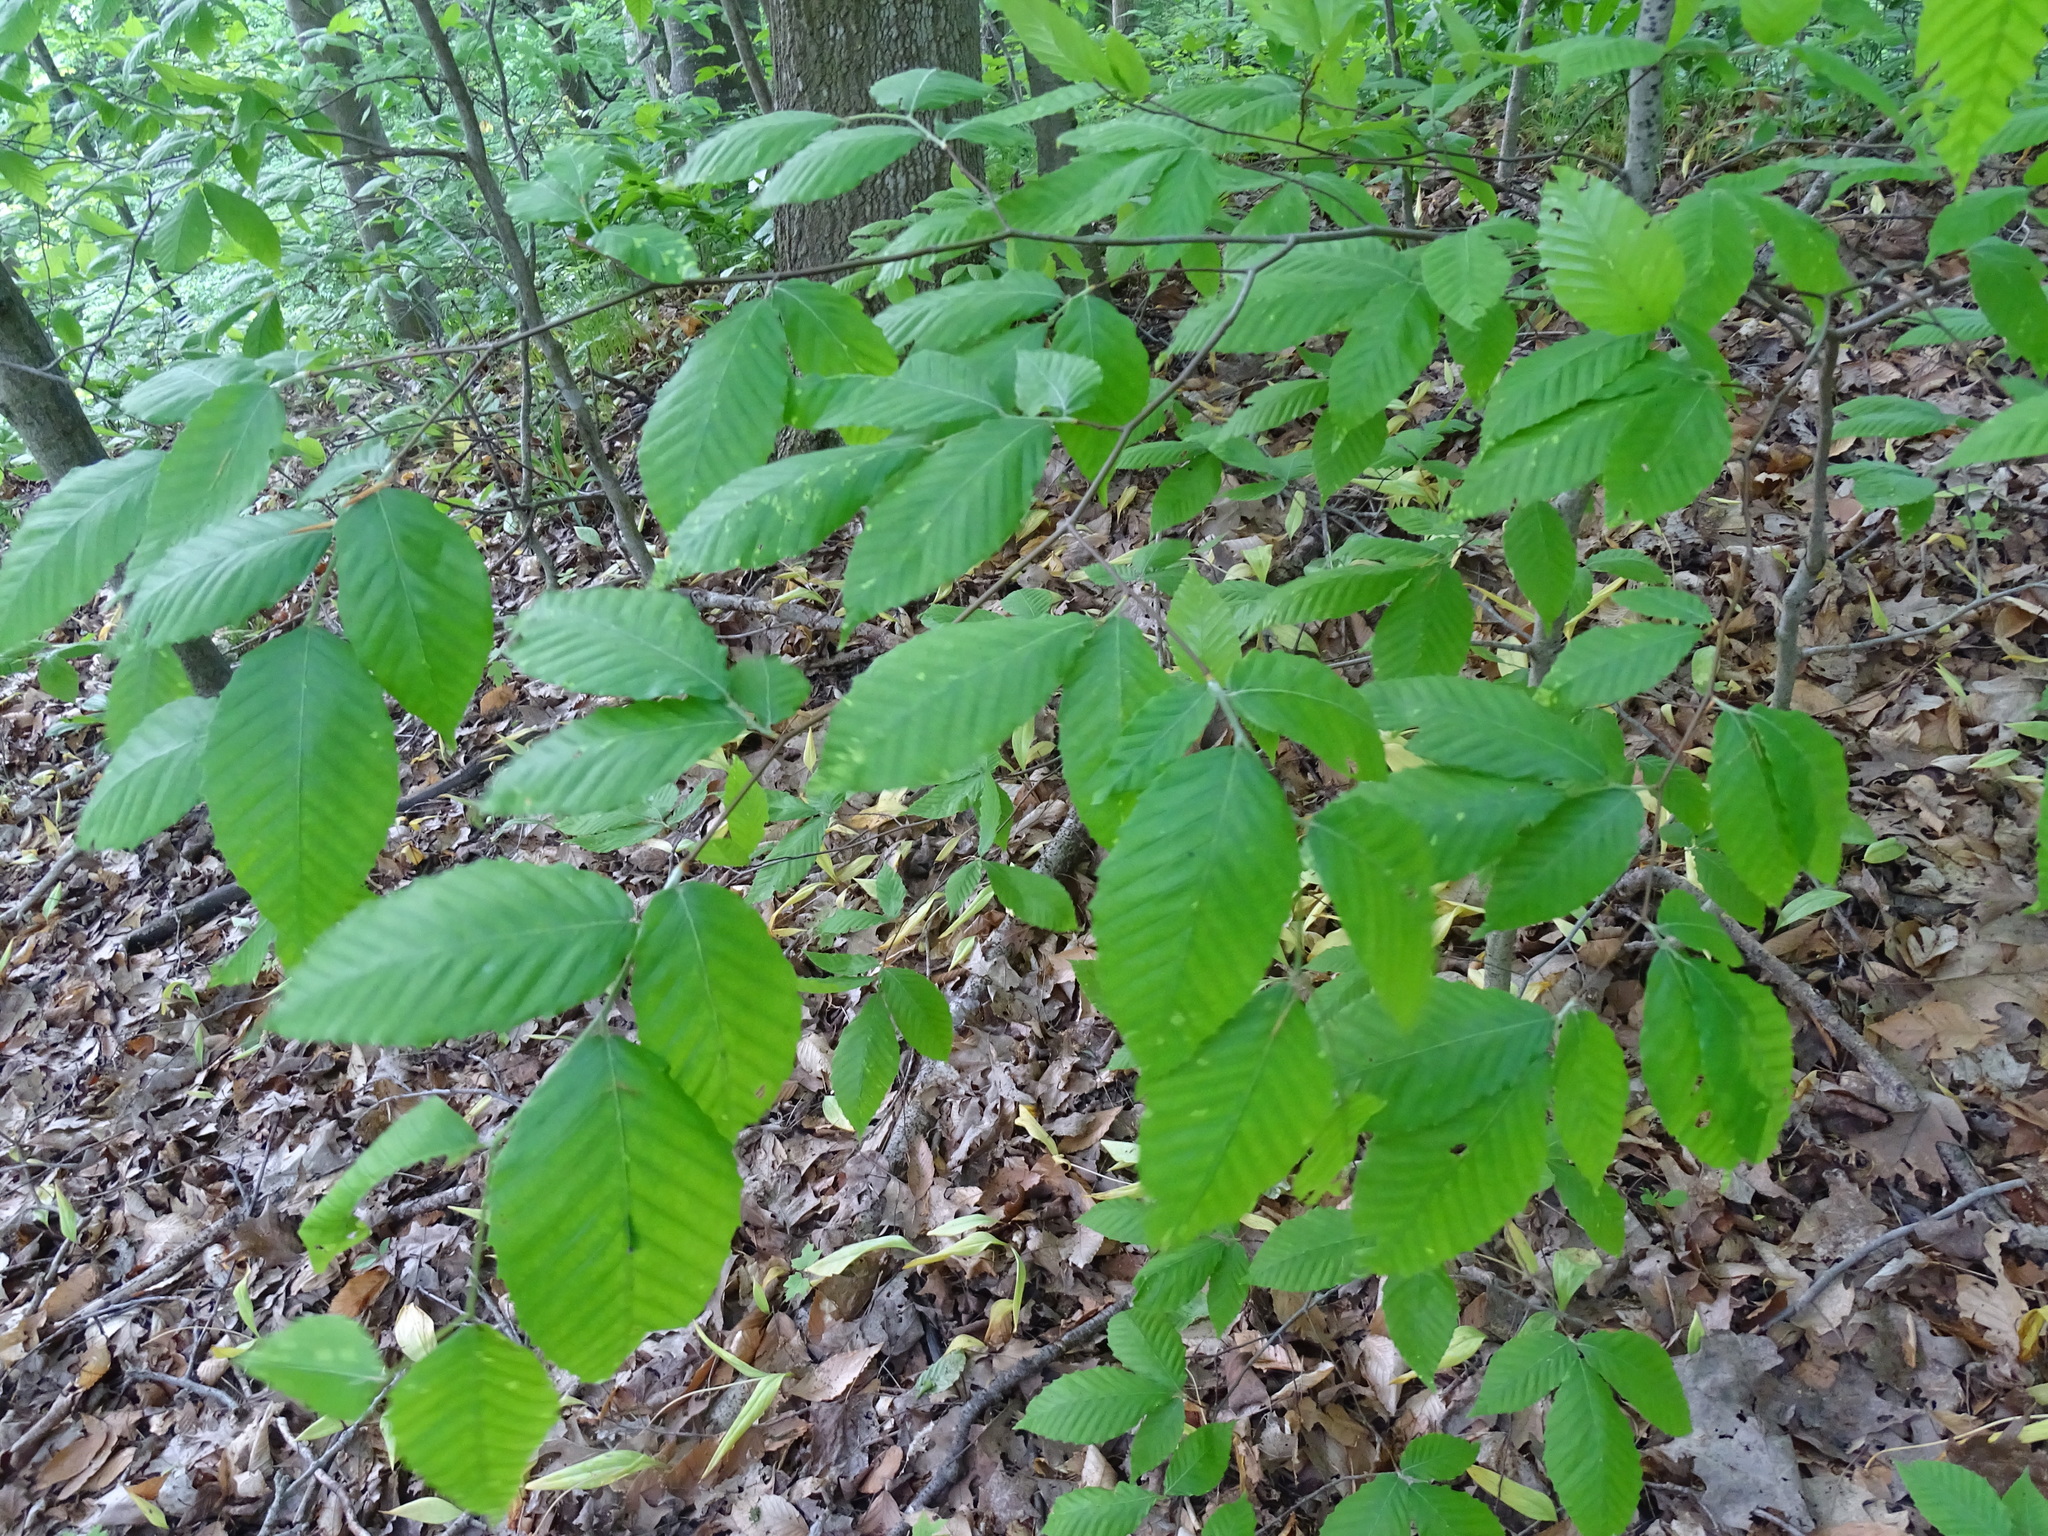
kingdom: Plantae
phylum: Tracheophyta
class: Magnoliopsida
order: Fagales
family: Fagaceae
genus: Fagus
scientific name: Fagus grandifolia
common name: American beech
